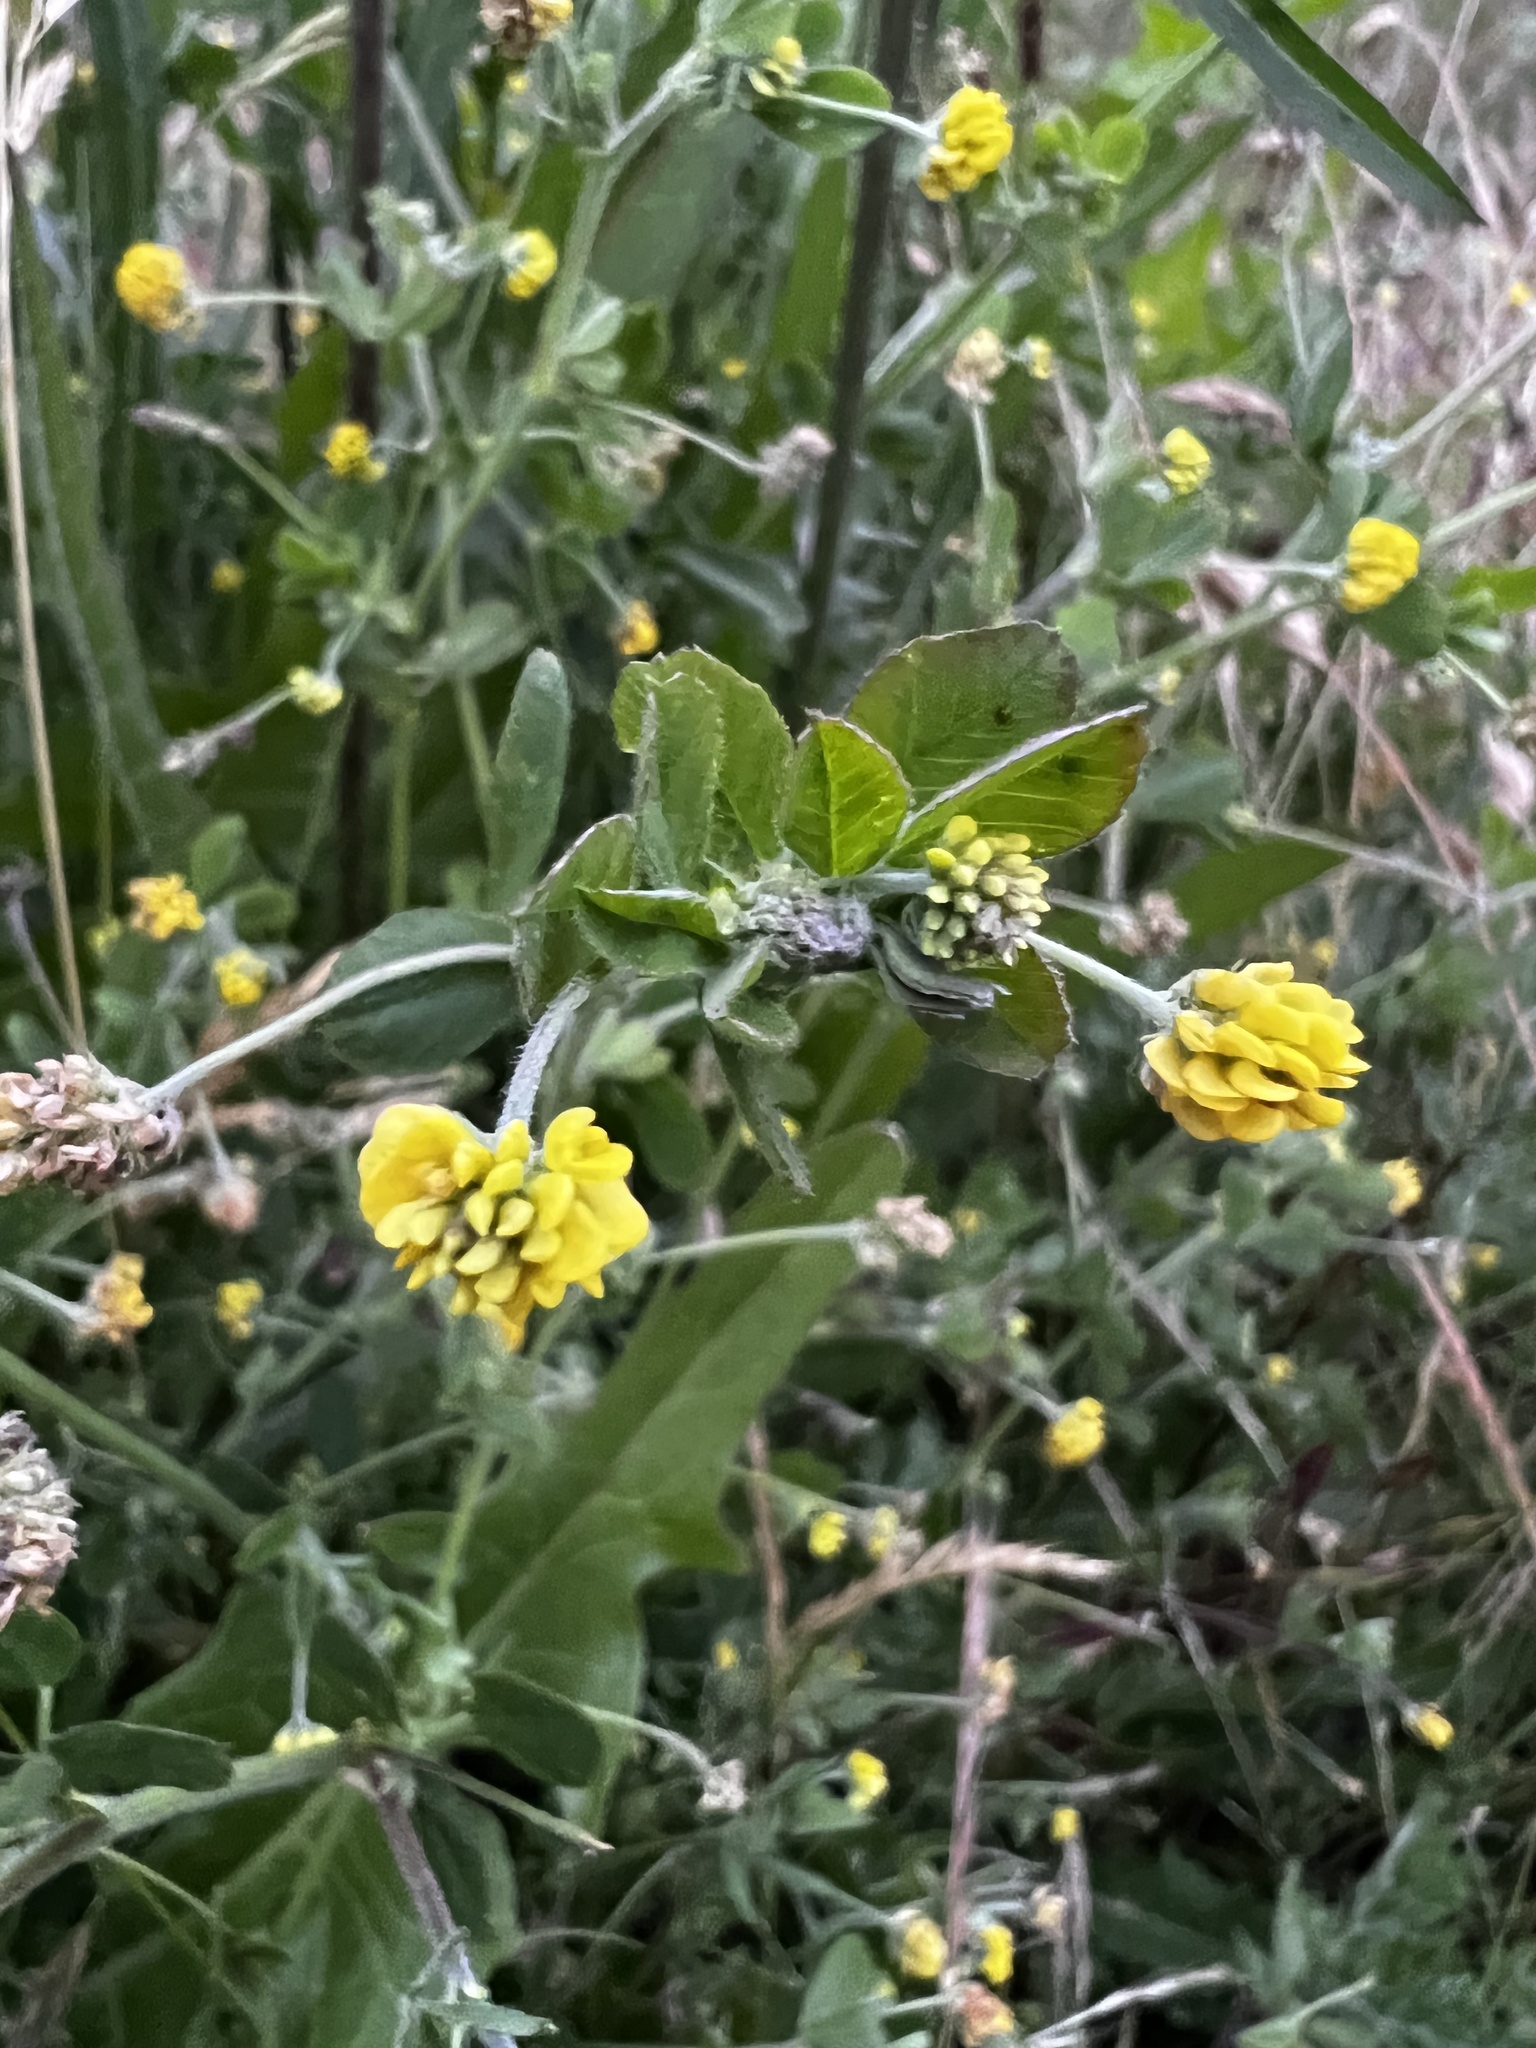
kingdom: Plantae
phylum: Tracheophyta
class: Magnoliopsida
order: Fabales
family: Fabaceae
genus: Medicago
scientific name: Medicago lupulina
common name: Black medick
